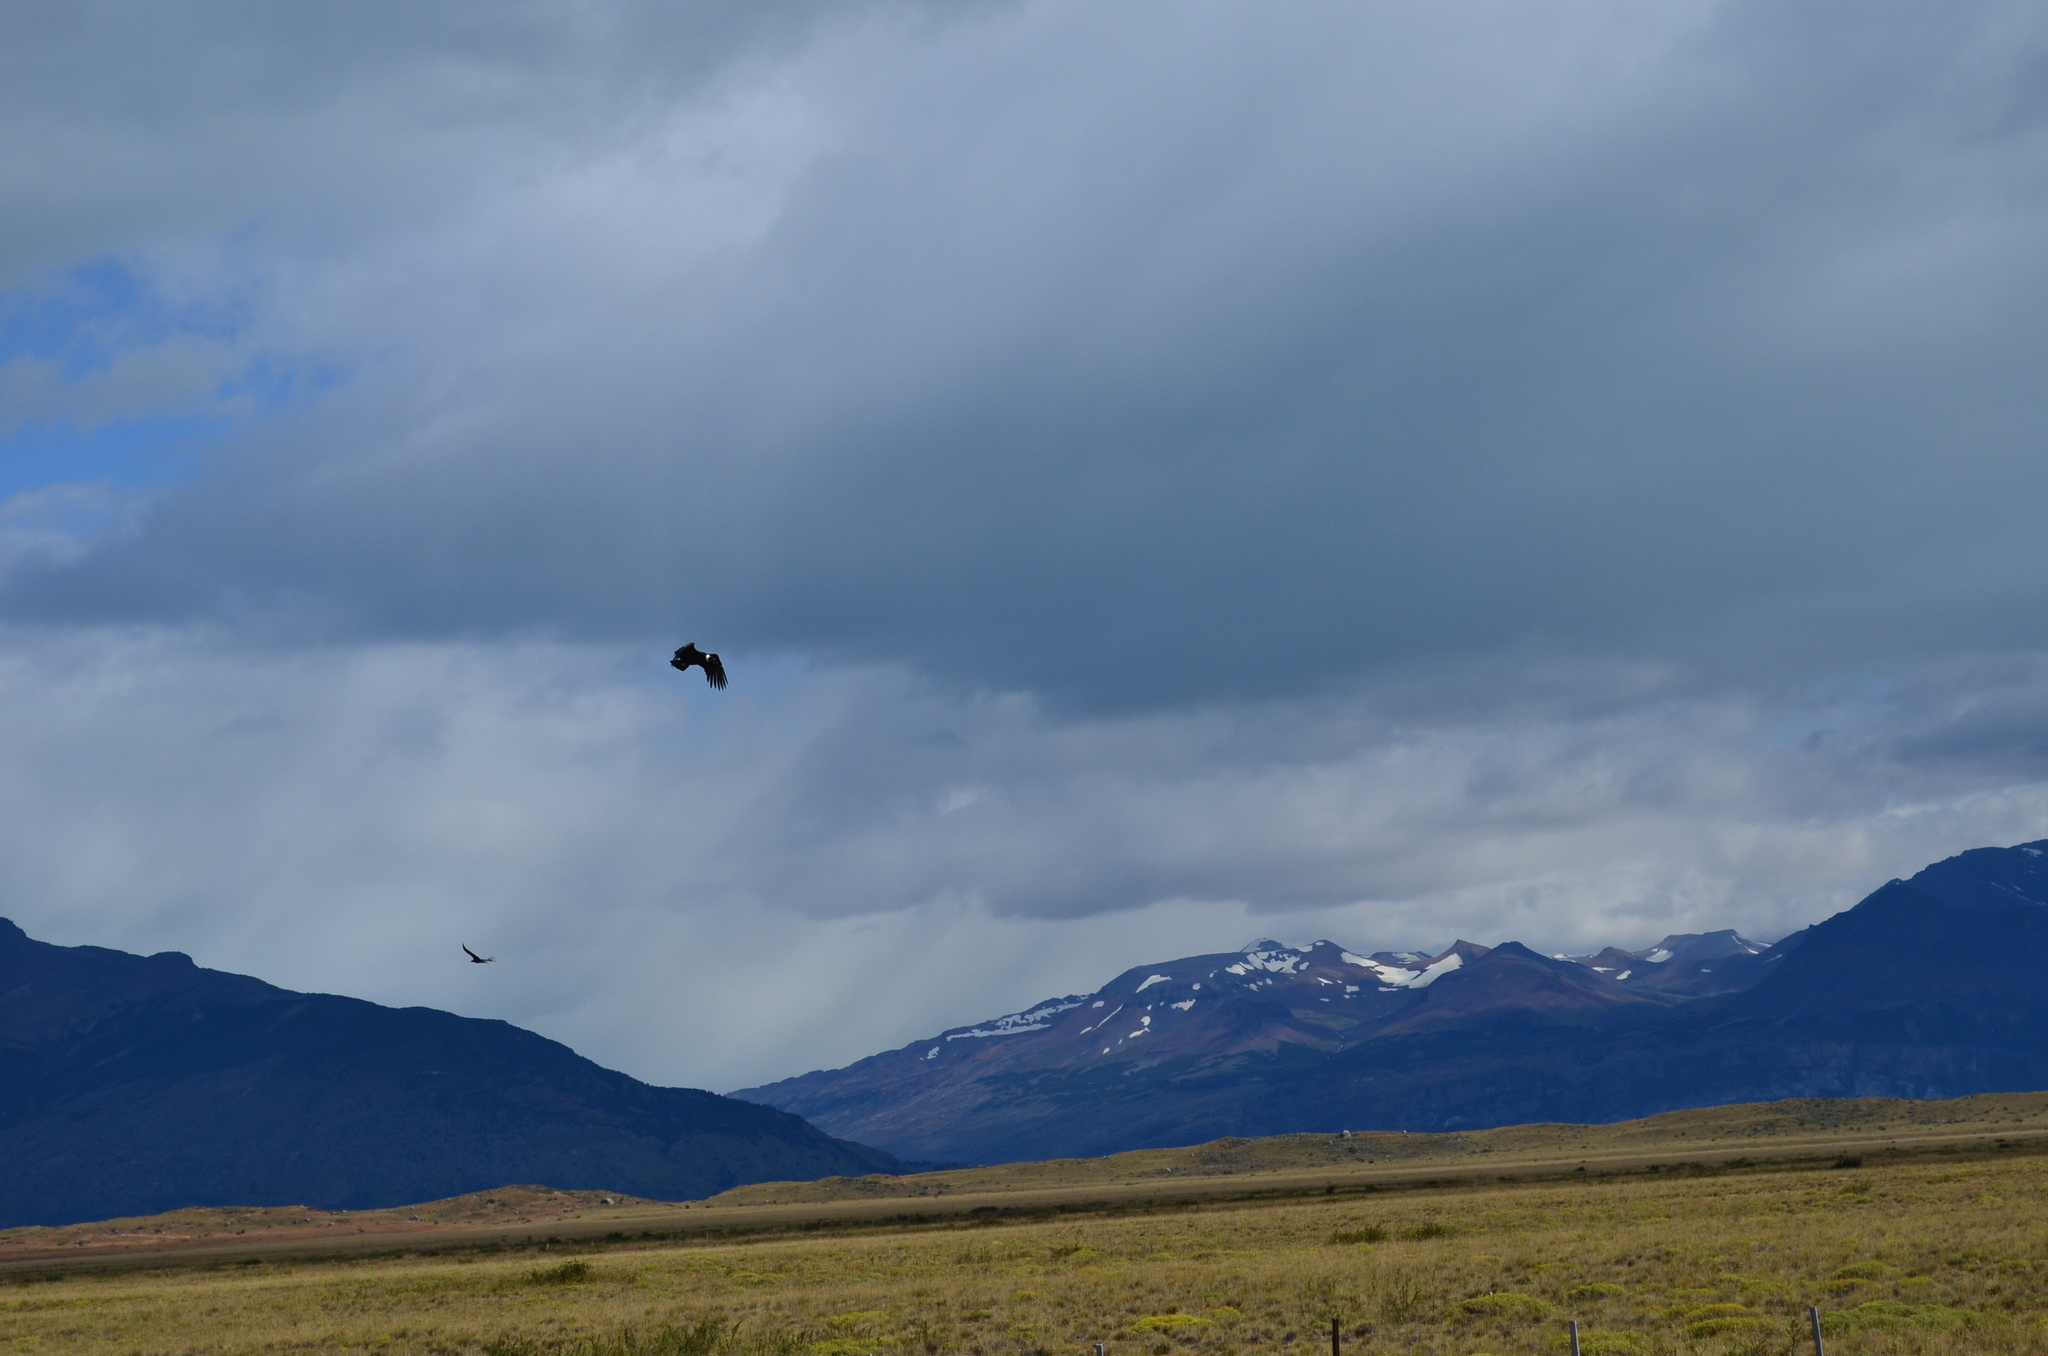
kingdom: Animalia
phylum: Chordata
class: Aves
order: Accipitriformes
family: Cathartidae
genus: Vultur
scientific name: Vultur gryphus
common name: Andean condor
